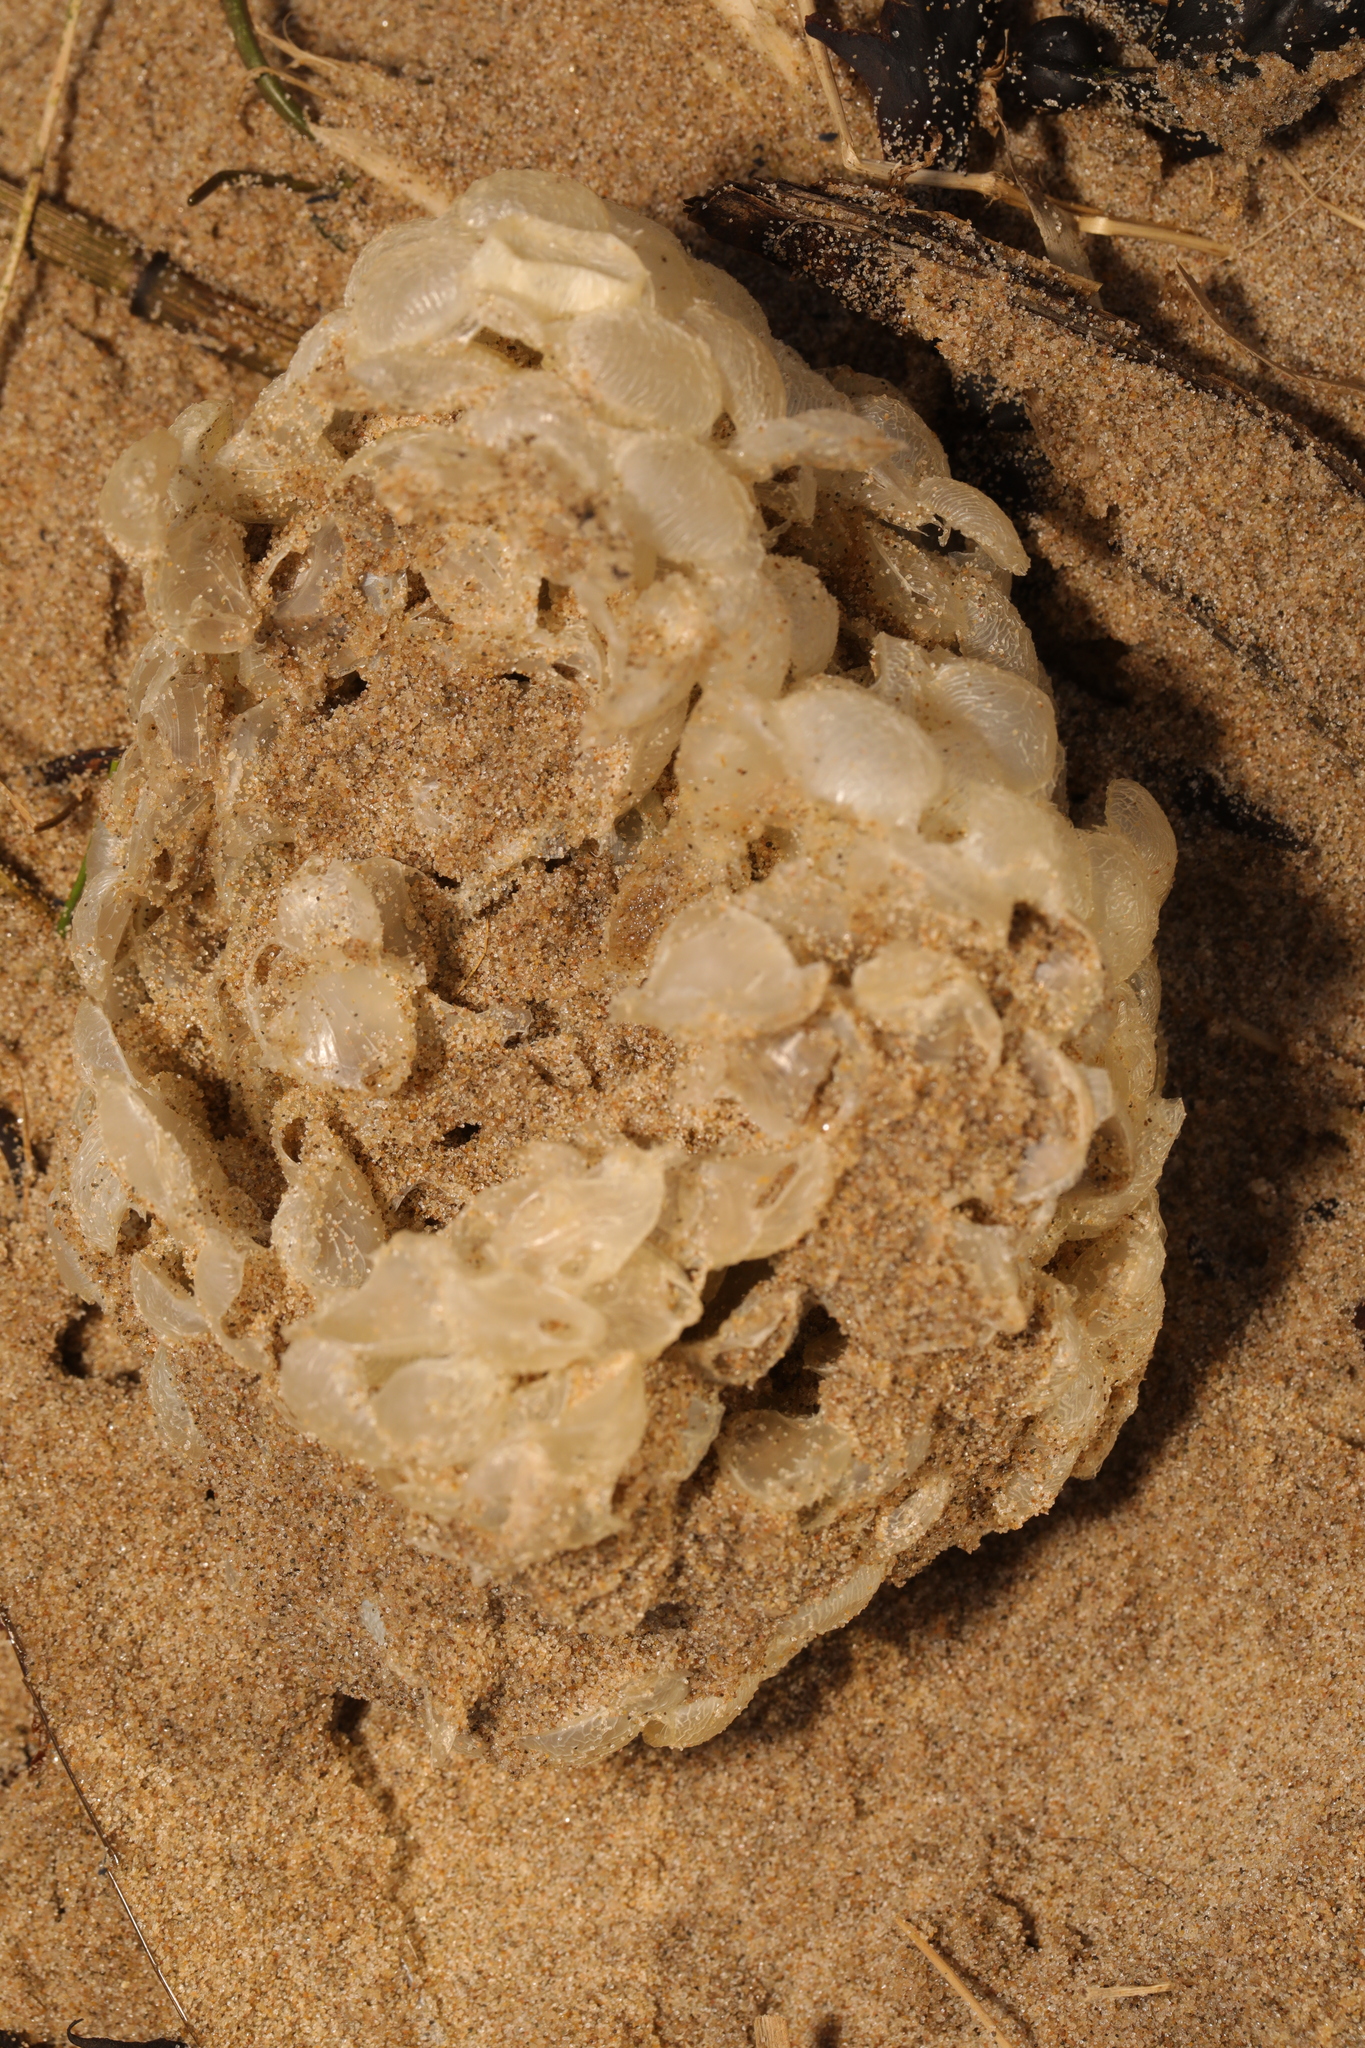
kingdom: Animalia
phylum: Mollusca
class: Gastropoda
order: Neogastropoda
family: Buccinidae
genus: Buccinum
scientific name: Buccinum undatum
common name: Common whelk
